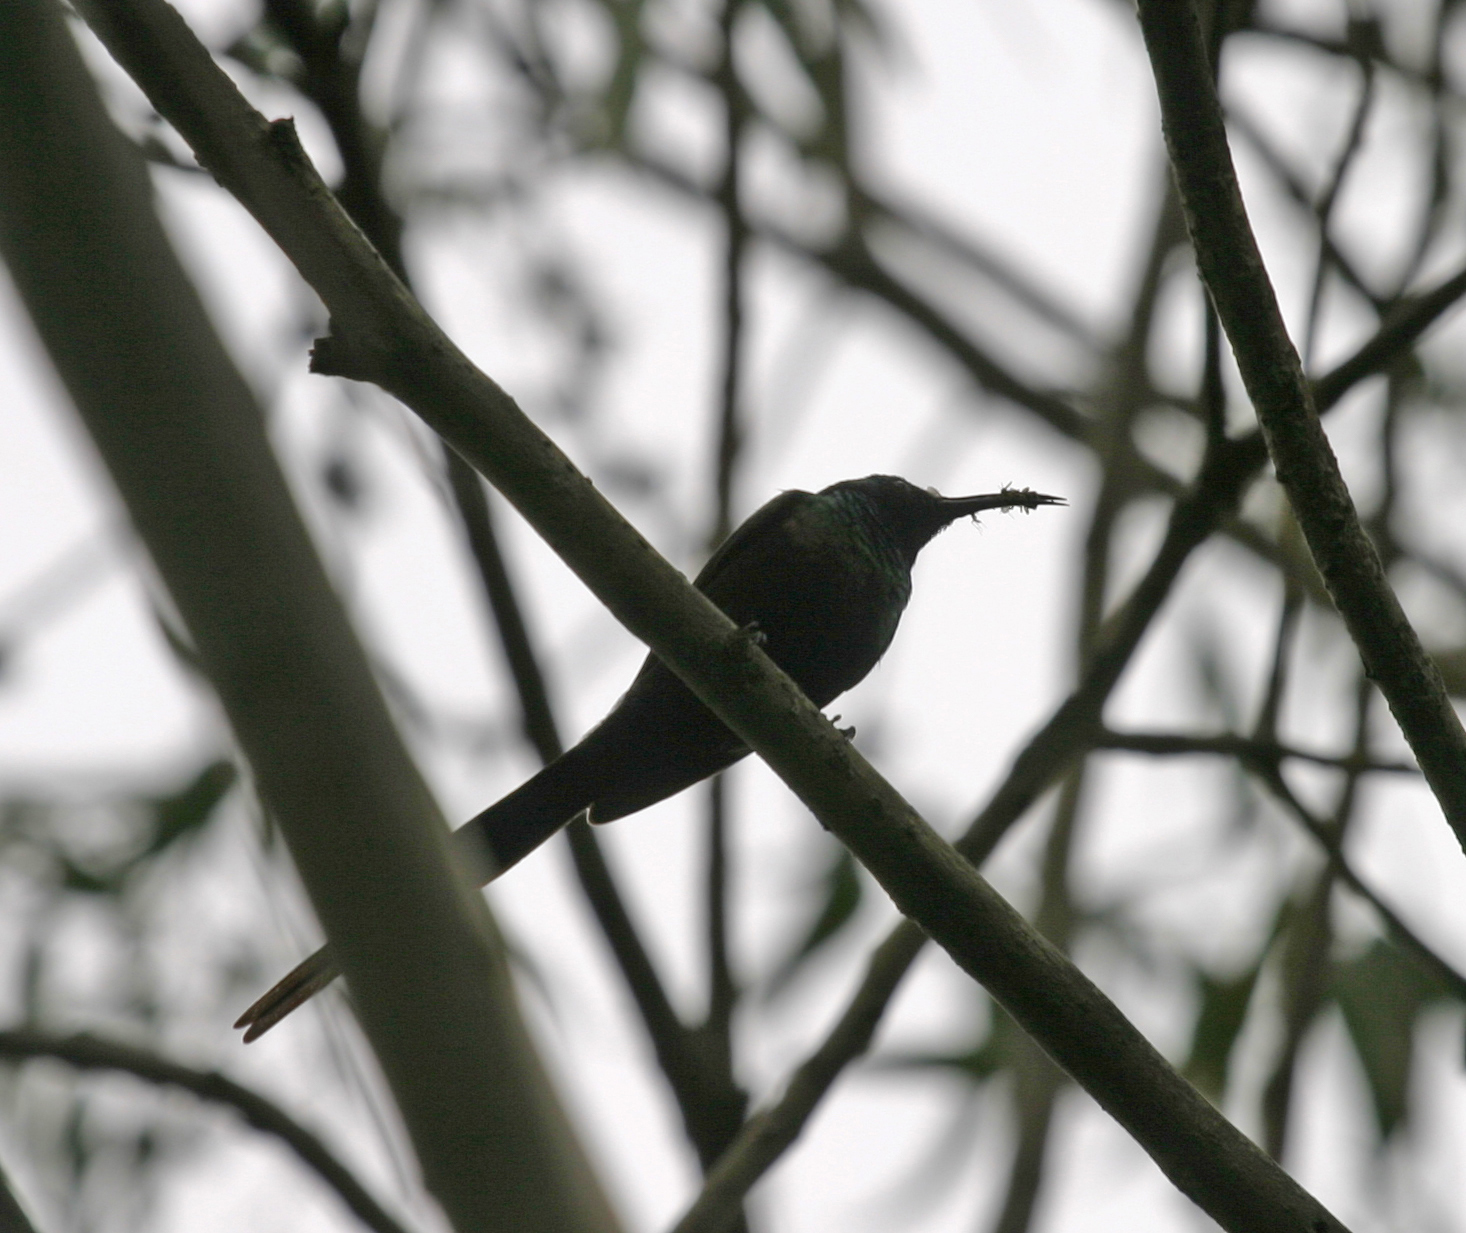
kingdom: Animalia
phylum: Chordata
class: Aves
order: Bucerotiformes
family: Phoeniculidae
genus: Phoeniculus
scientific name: Phoeniculus somaliensis
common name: Black-billed woodhoopoe
